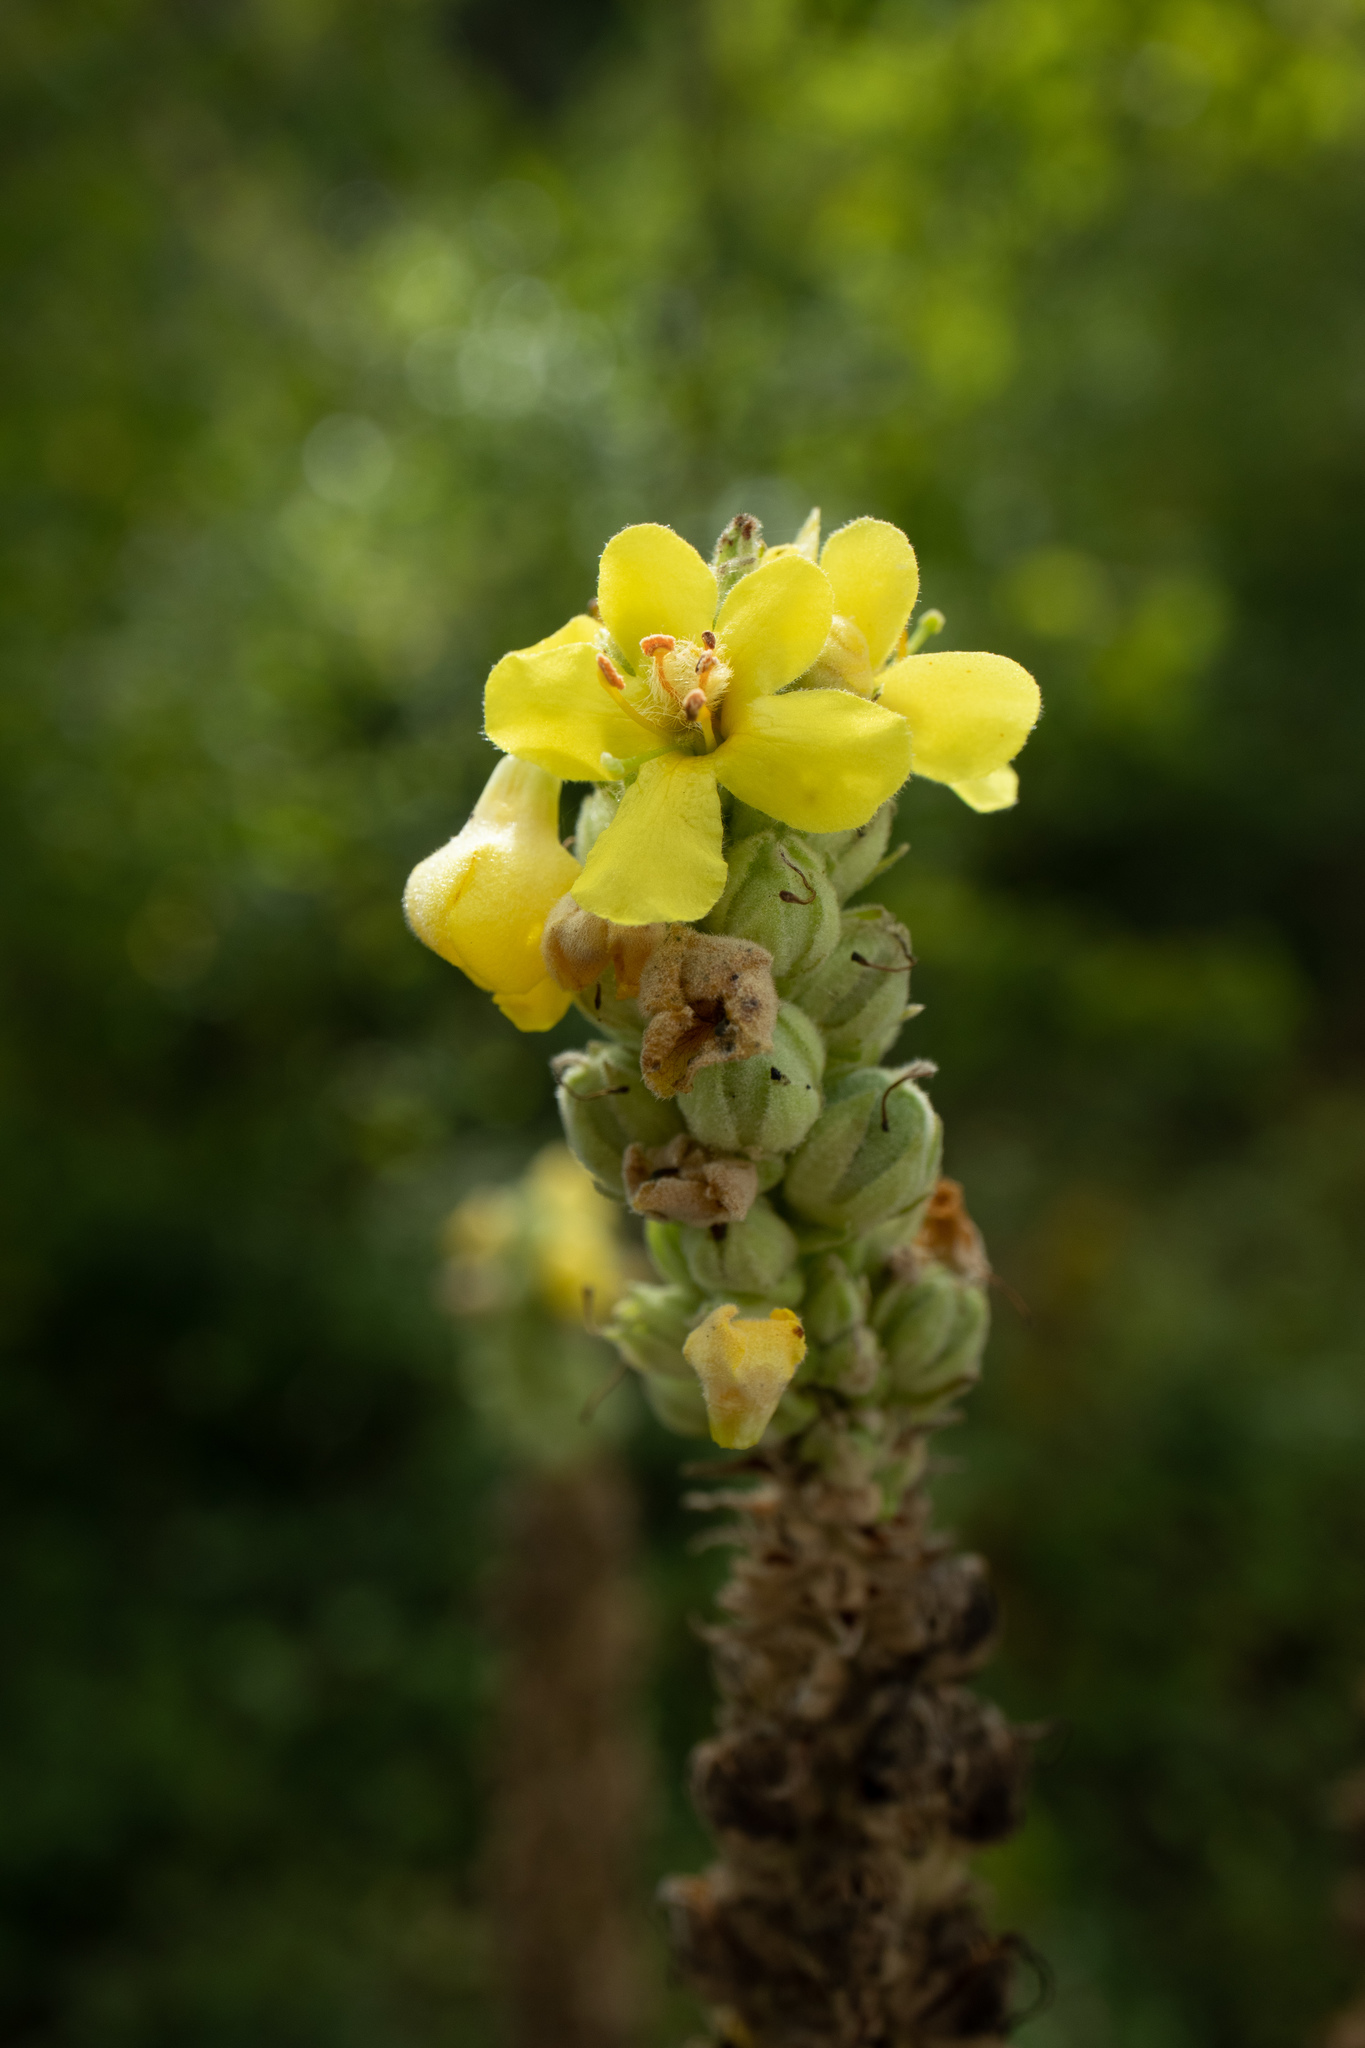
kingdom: Plantae
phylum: Tracheophyta
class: Magnoliopsida
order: Lamiales
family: Scrophulariaceae
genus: Verbascum
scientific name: Verbascum thapsus
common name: Common mullein
